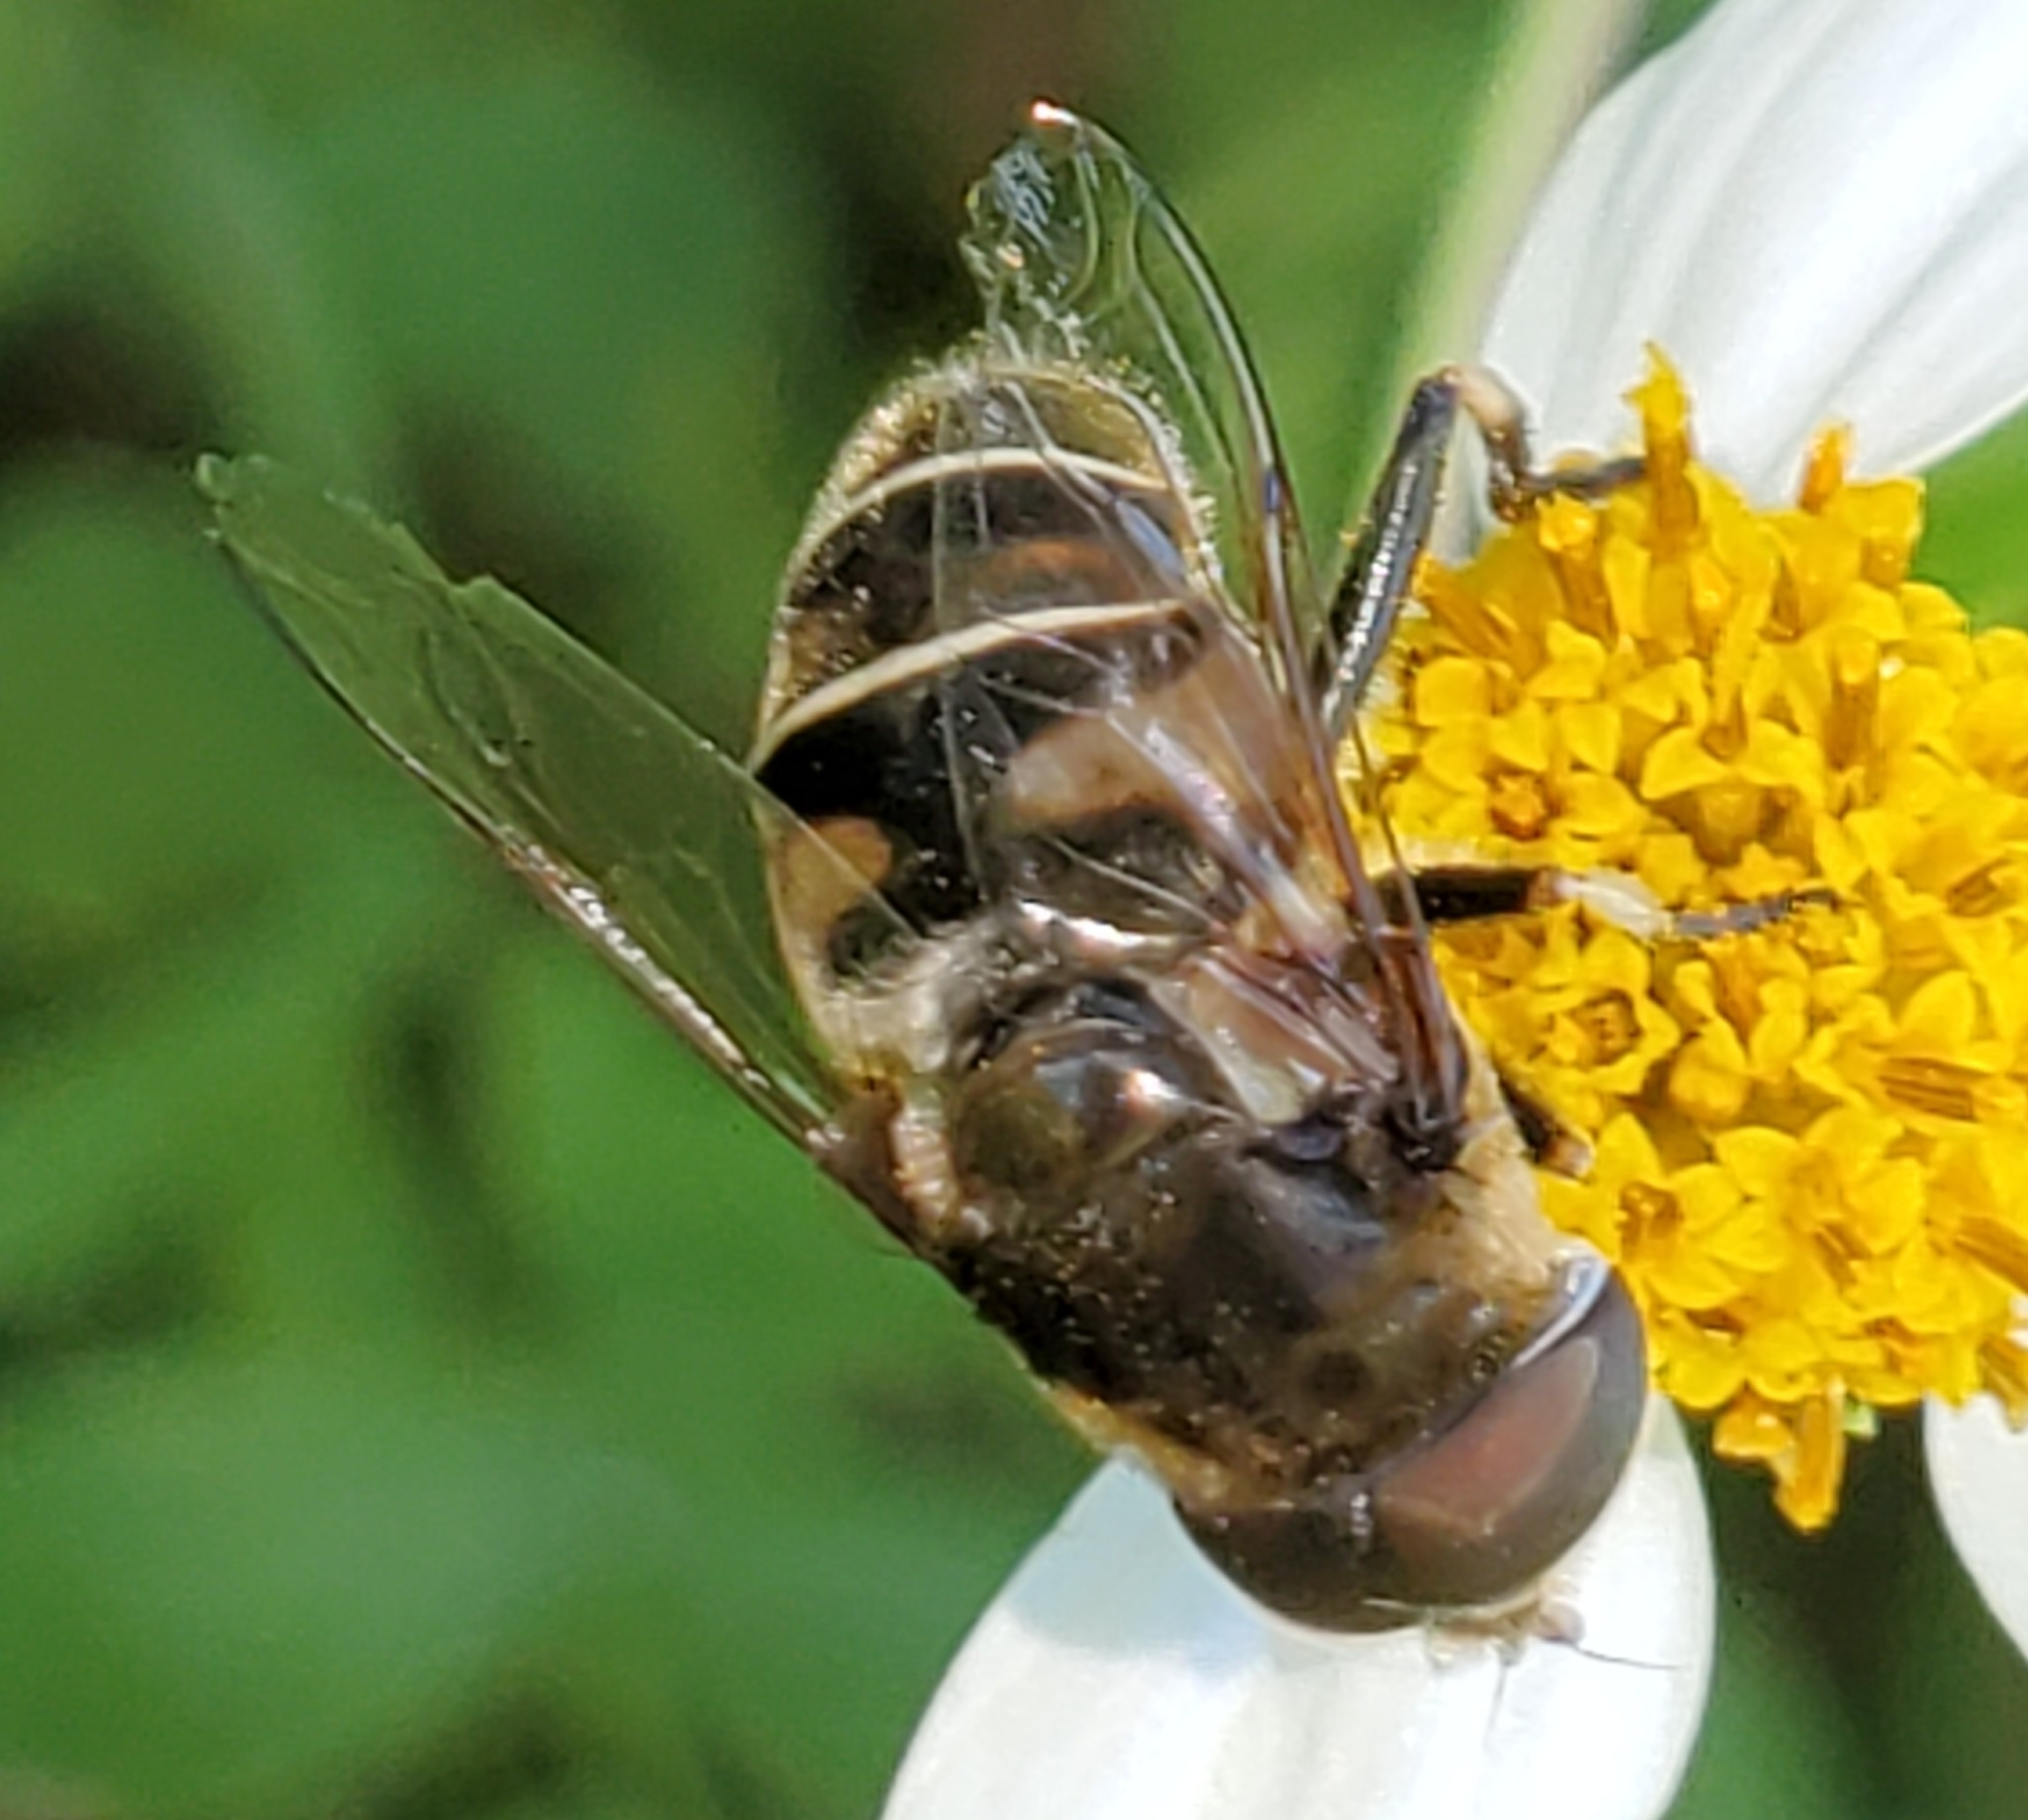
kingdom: Animalia
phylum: Arthropoda
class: Insecta
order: Diptera
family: Syrphidae
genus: Eristalis
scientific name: Eristalis dimidiata
